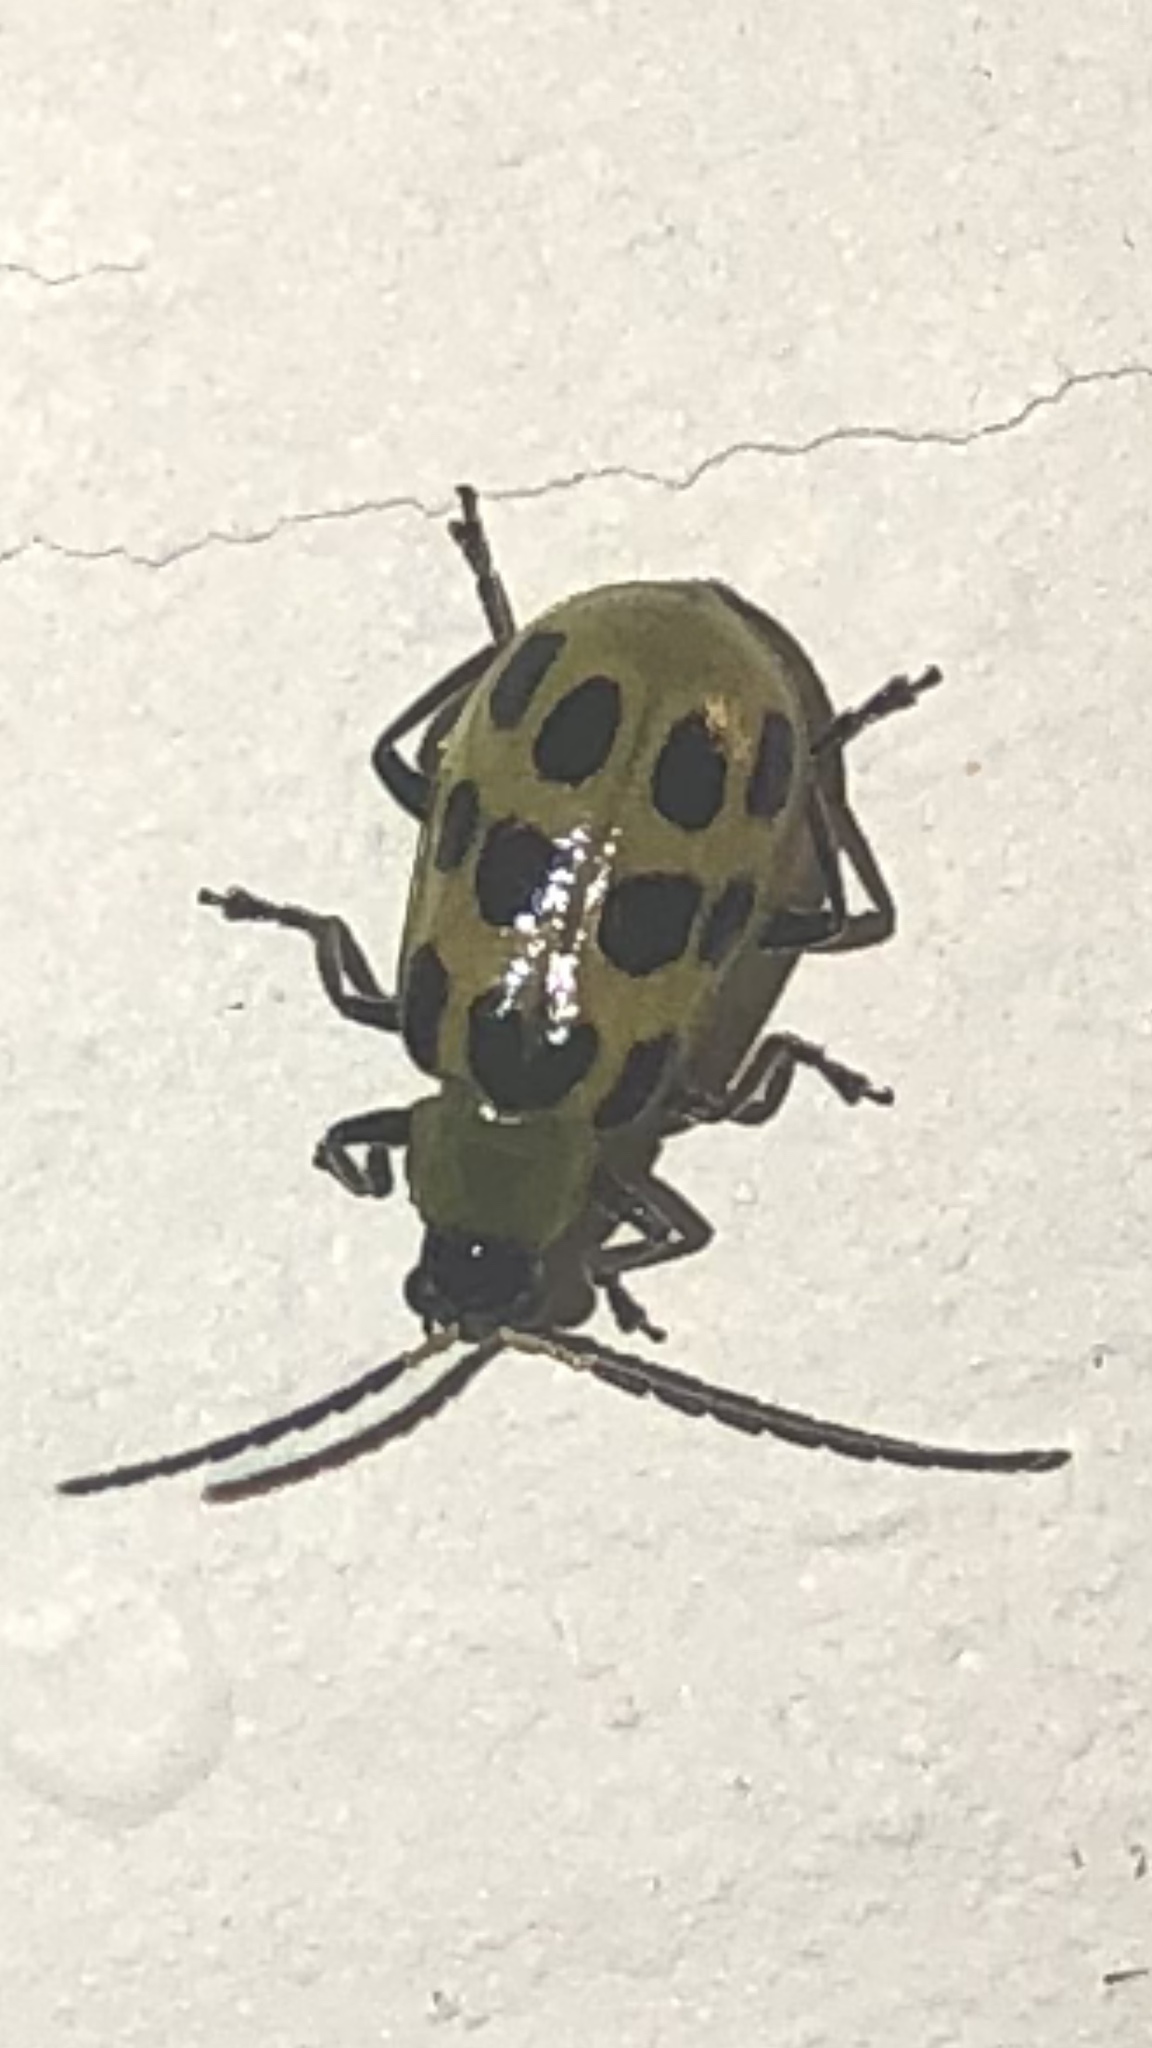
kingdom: Animalia
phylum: Arthropoda
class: Insecta
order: Coleoptera
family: Chrysomelidae
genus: Diabrotica
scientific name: Diabrotica undecimpunctata
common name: Spotted cucumber beetle
